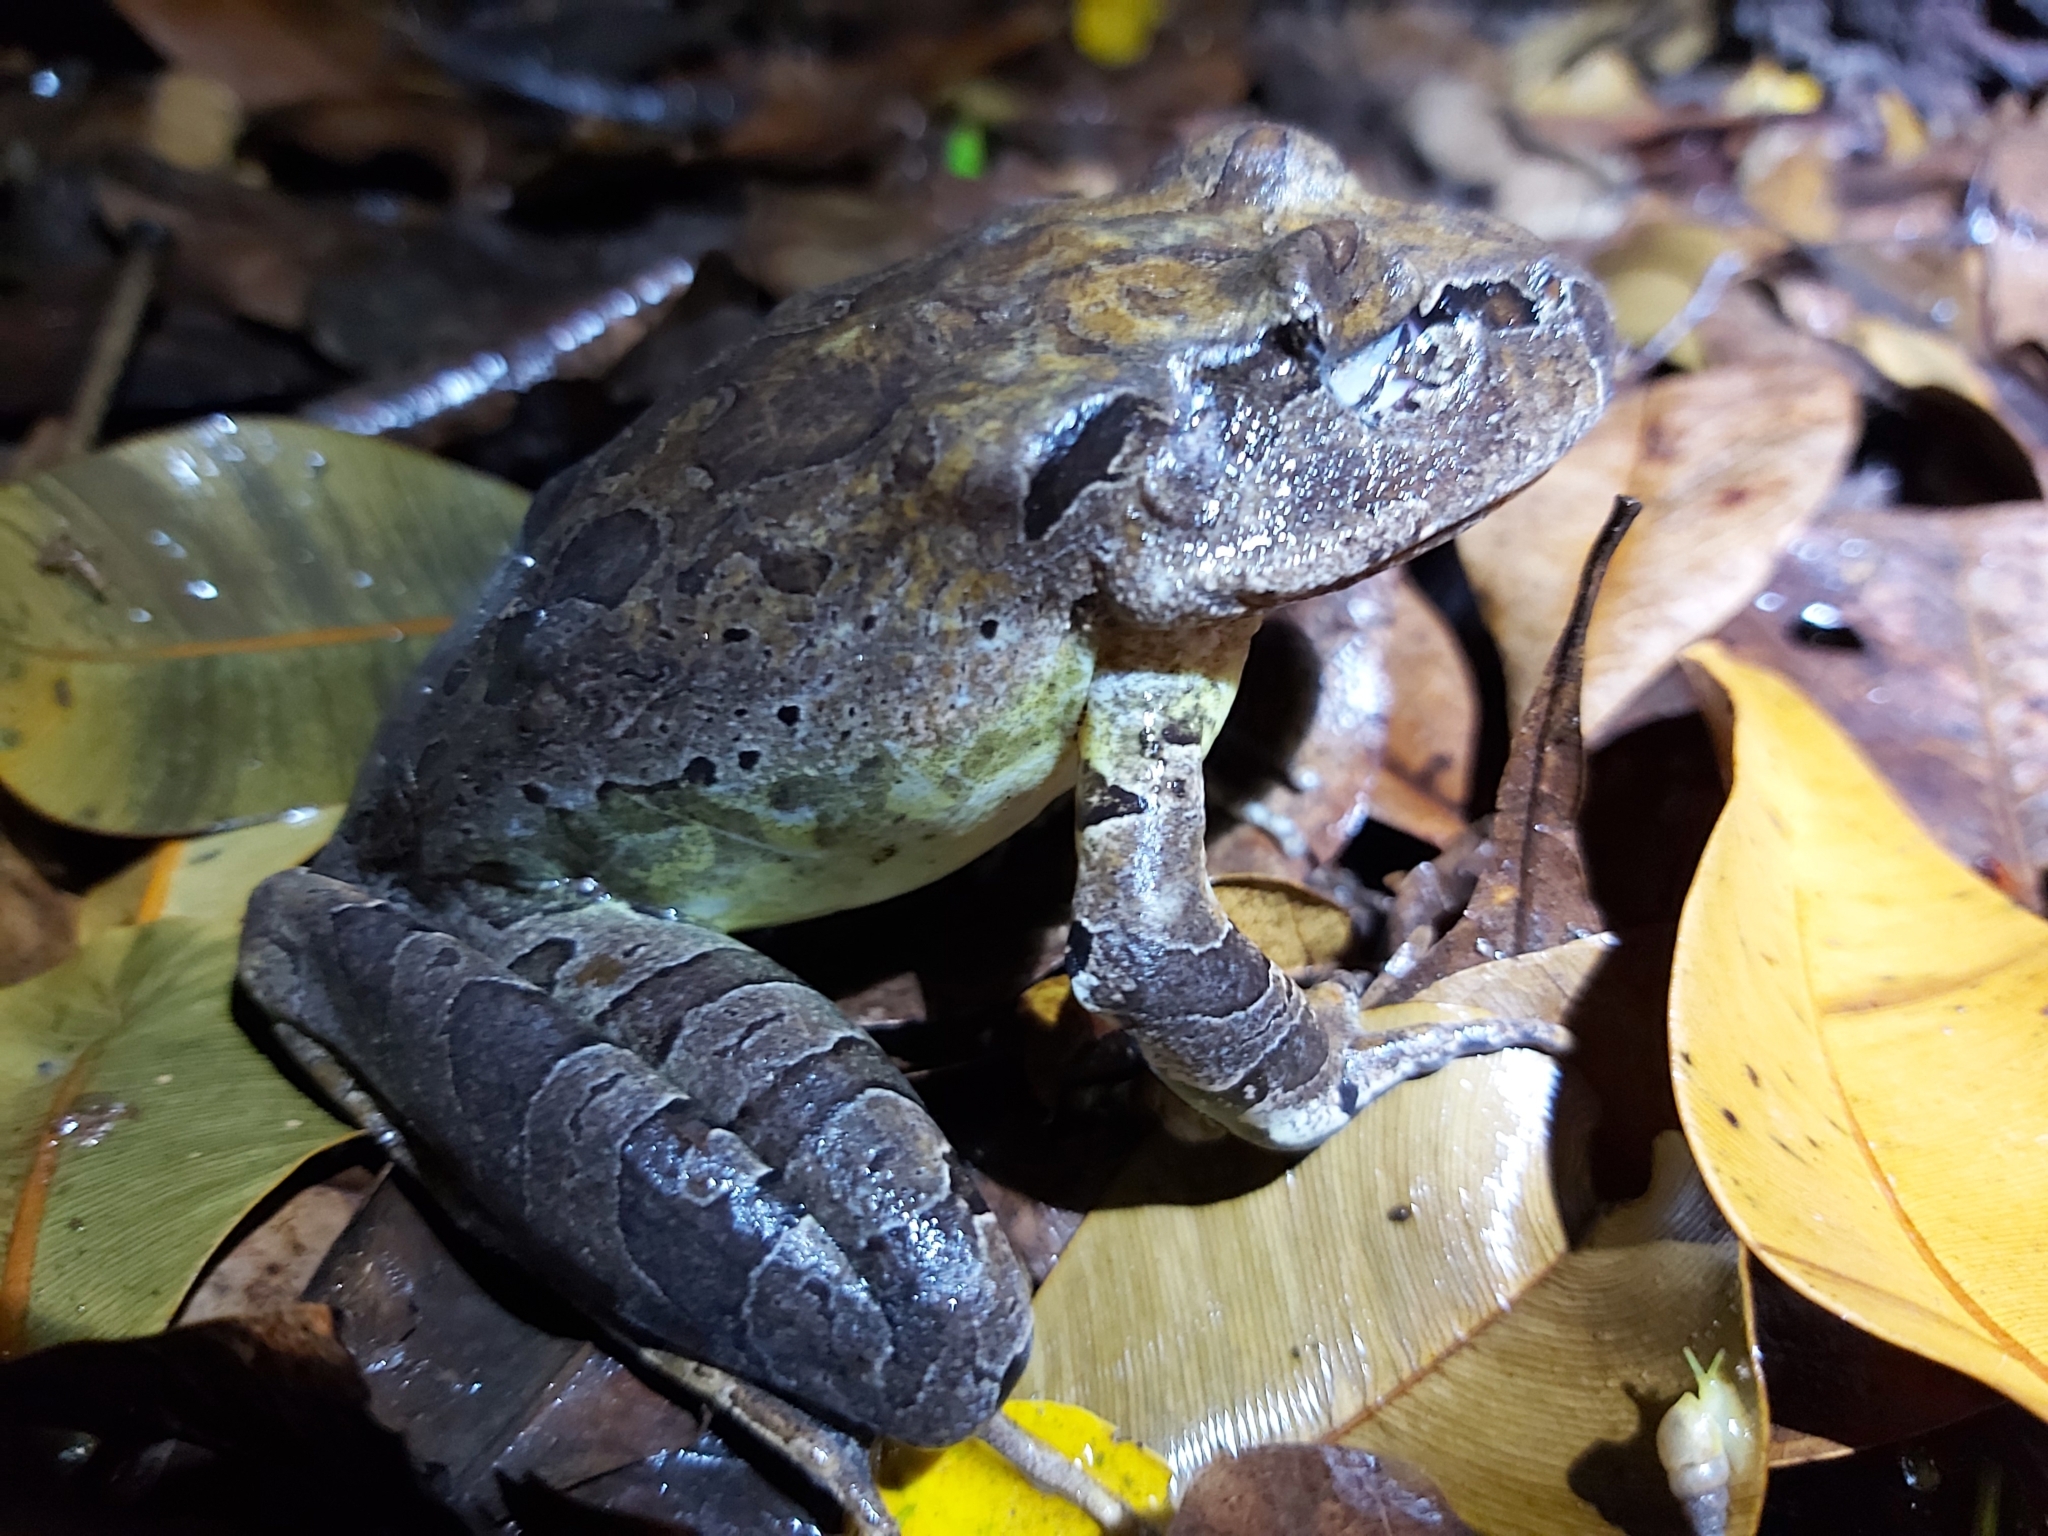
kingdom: Animalia
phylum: Chordata
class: Amphibia
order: Anura
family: Myobatrachidae
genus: Mixophyes
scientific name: Mixophyes schevilli
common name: Northern barred frog
